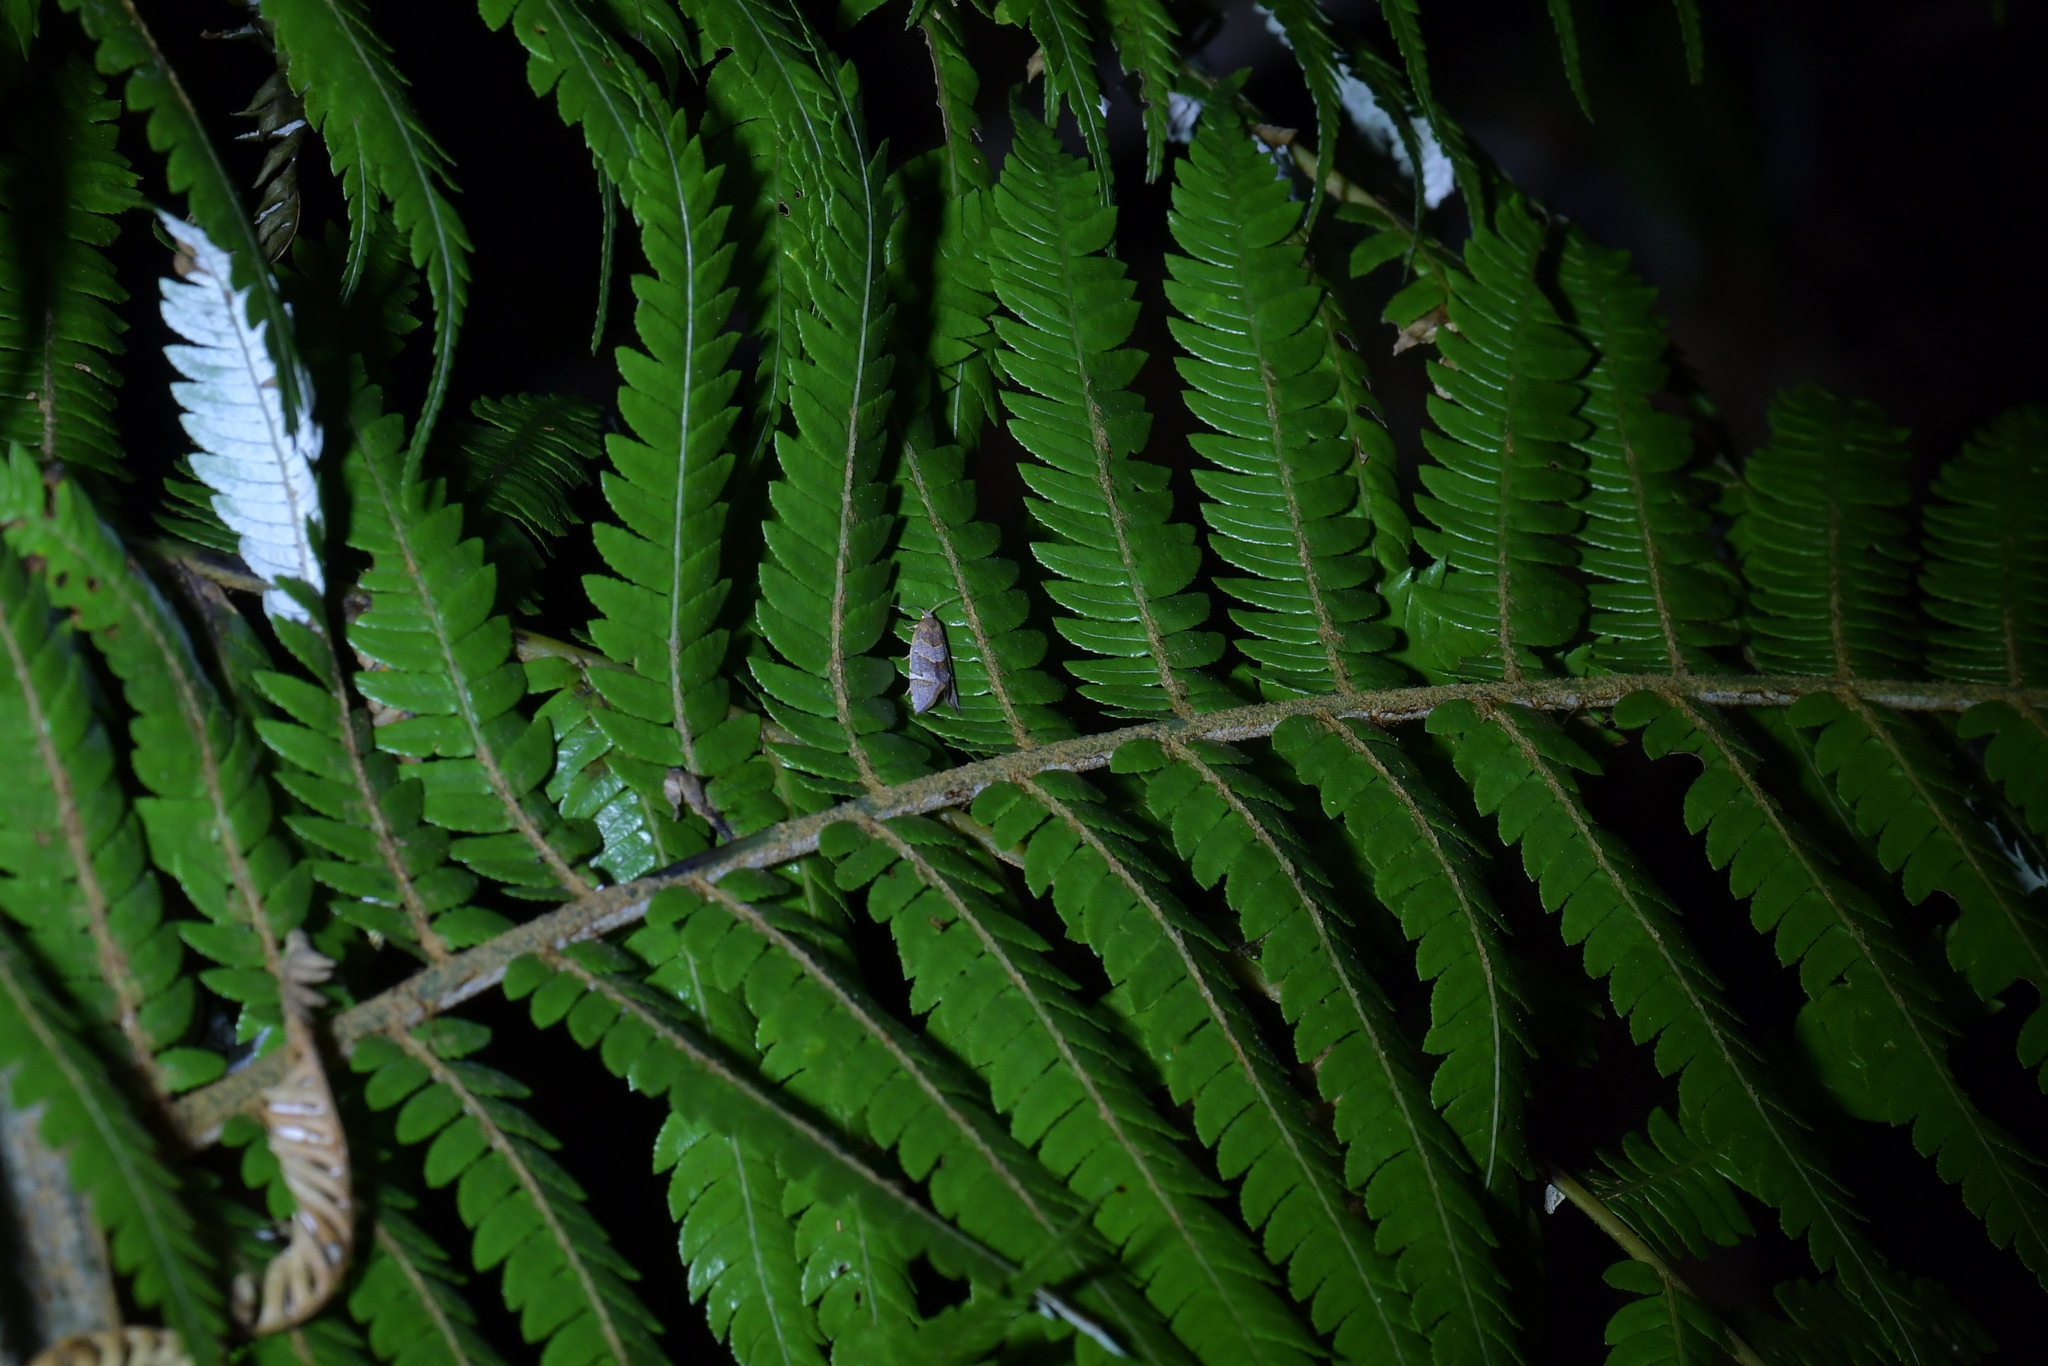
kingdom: Animalia
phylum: Arthropoda
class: Insecta
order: Lepidoptera
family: Tortricidae
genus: Ecclitica
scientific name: Ecclitica torogramma
